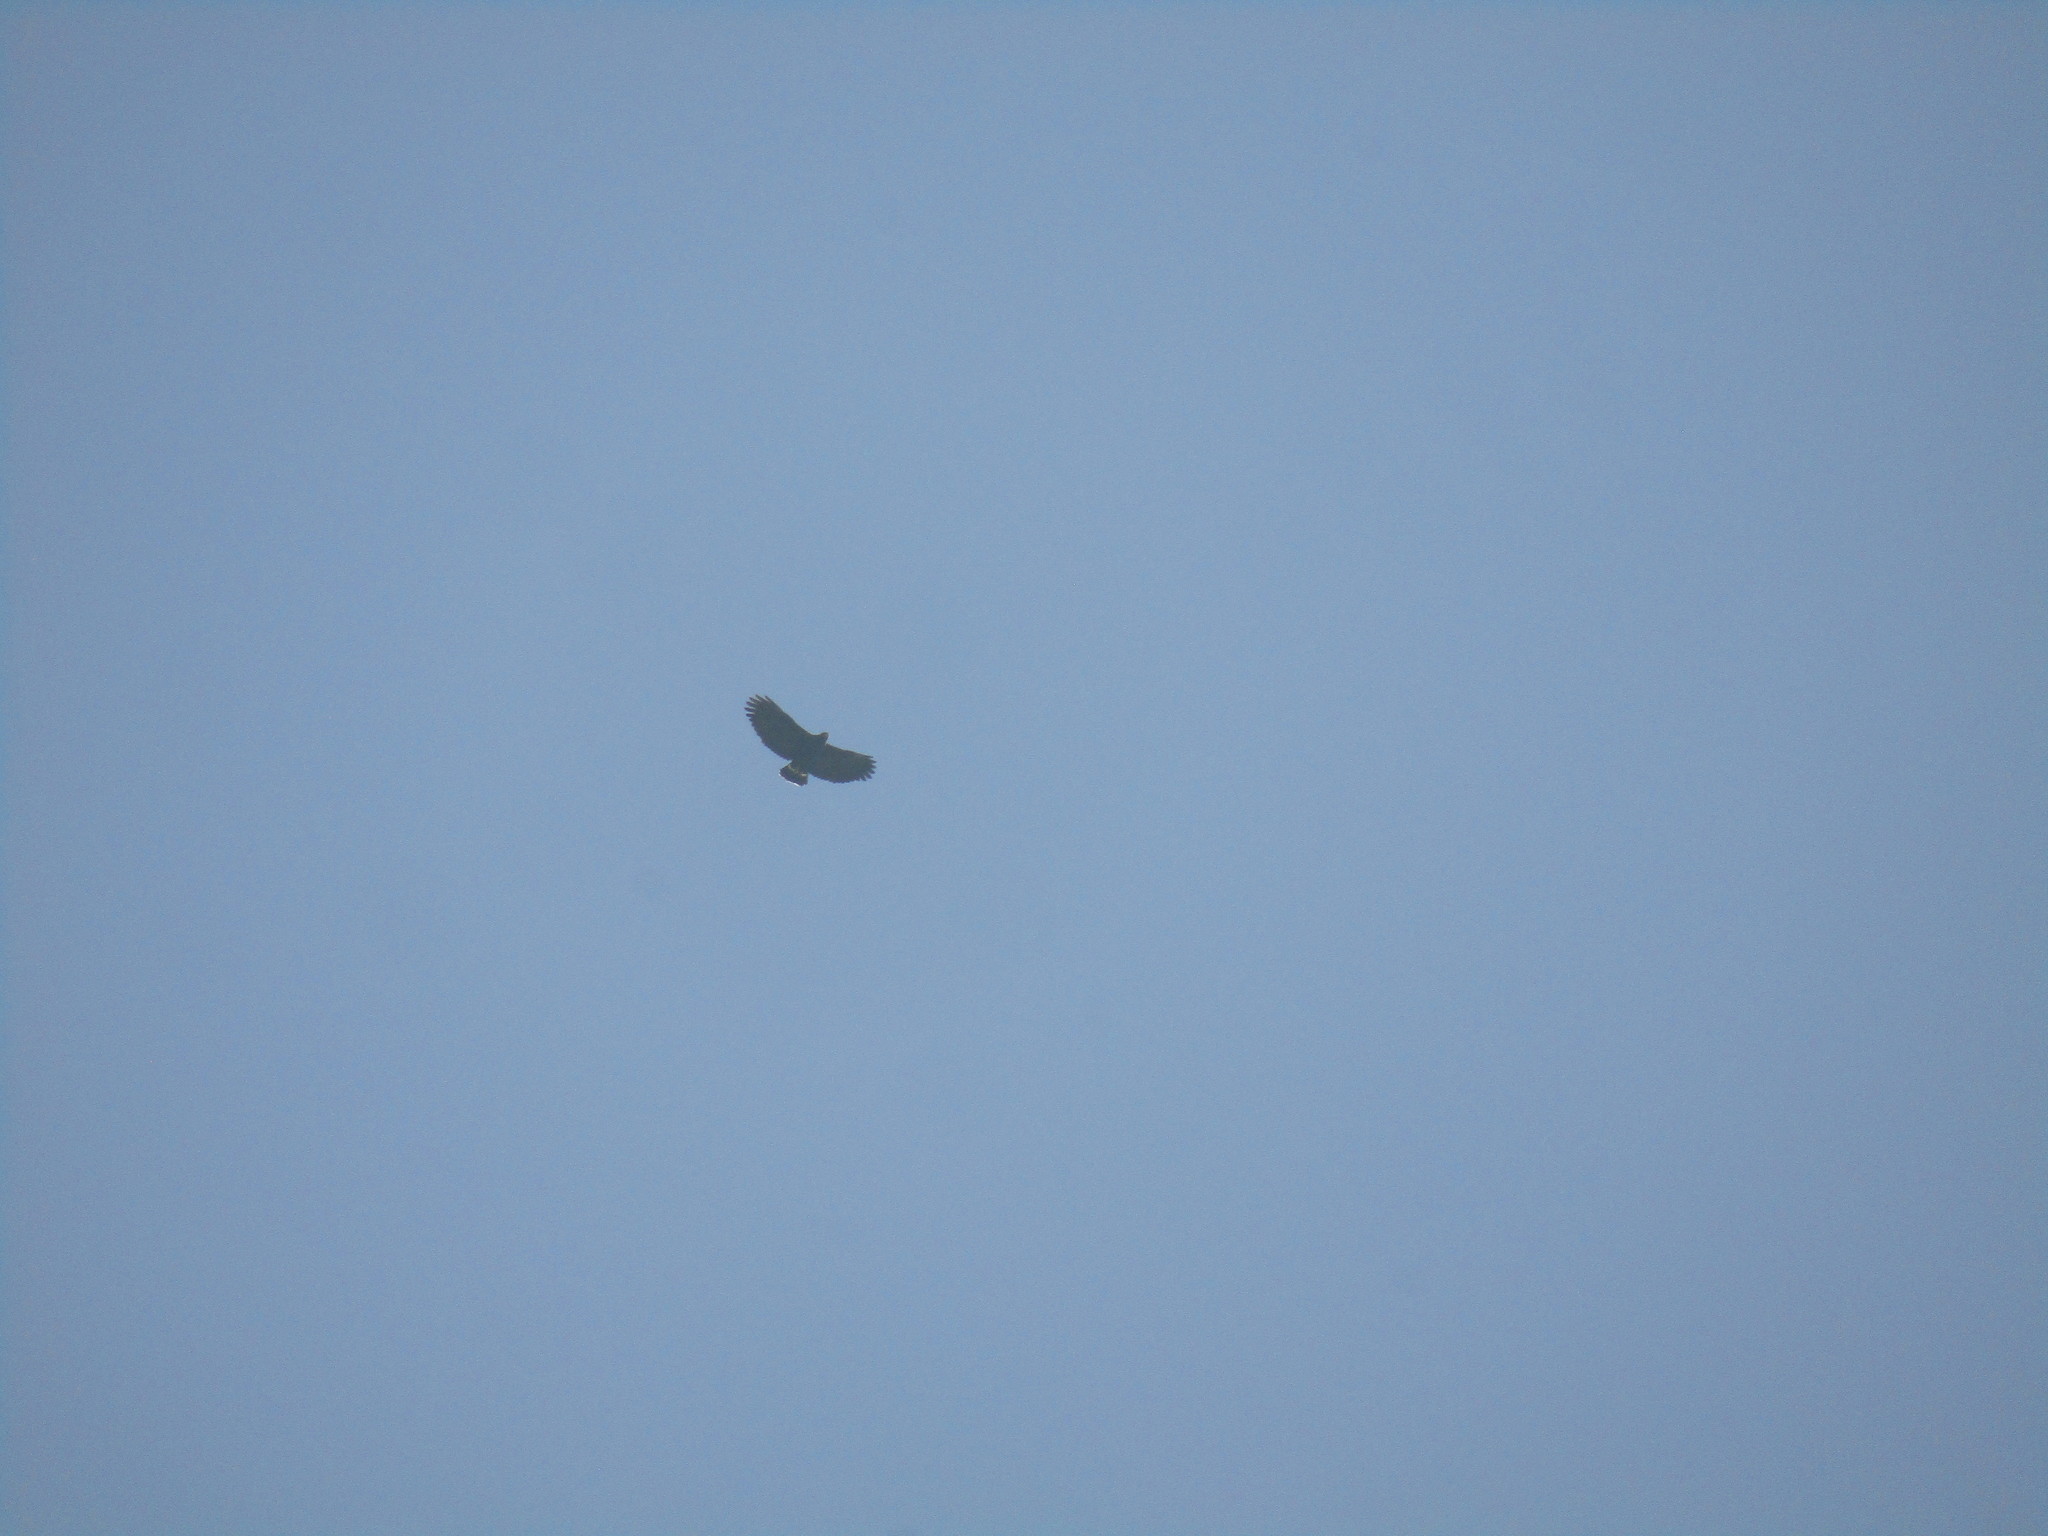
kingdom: Animalia
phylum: Chordata
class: Aves
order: Accipitriformes
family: Accipitridae
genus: Buteogallus
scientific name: Buteogallus anthracinus
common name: Common black hawk
